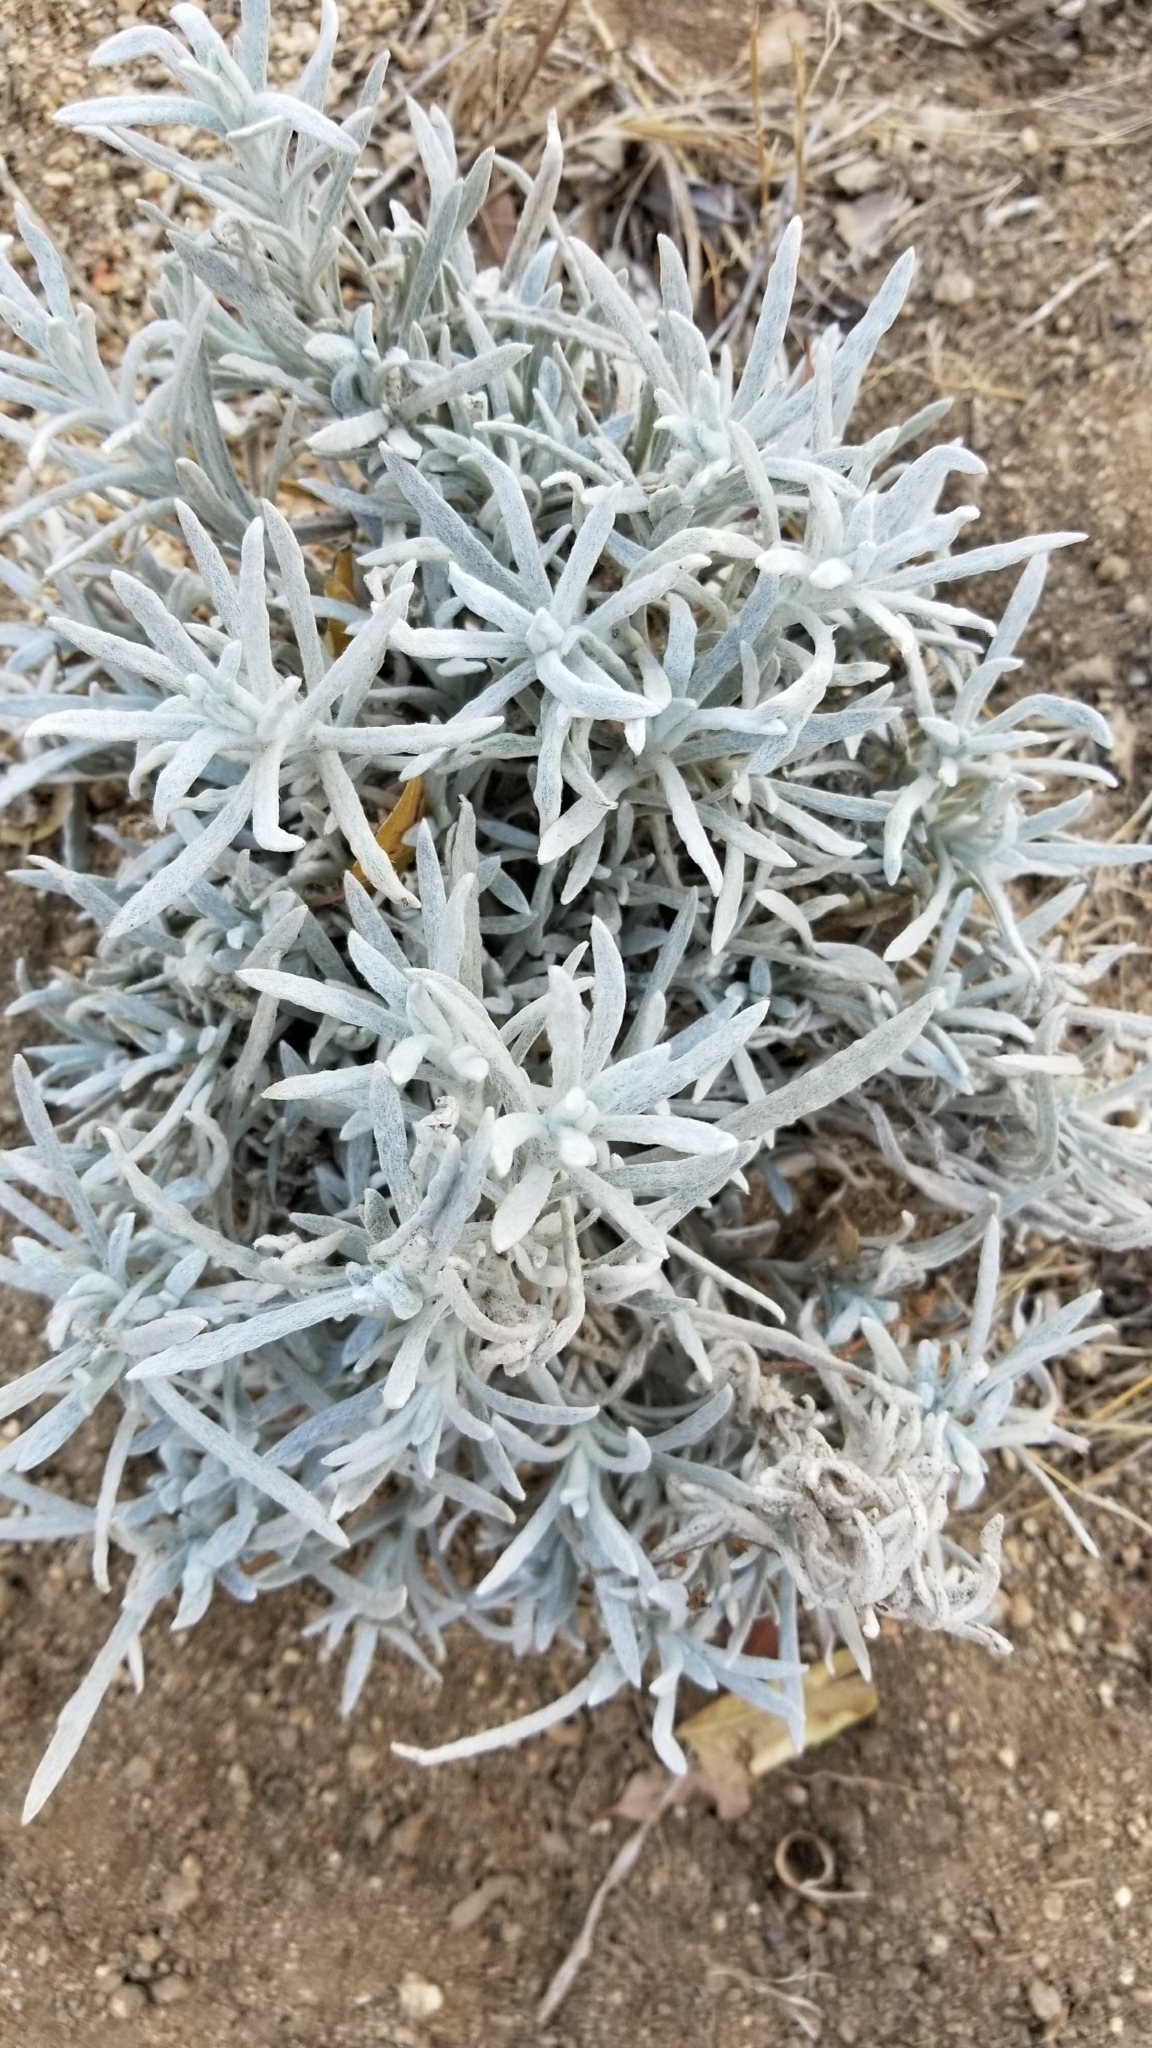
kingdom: Plantae
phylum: Tracheophyta
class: Magnoliopsida
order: Asterales
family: Asteraceae
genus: Pseudognaphalium
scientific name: Pseudognaphalium beneolens
